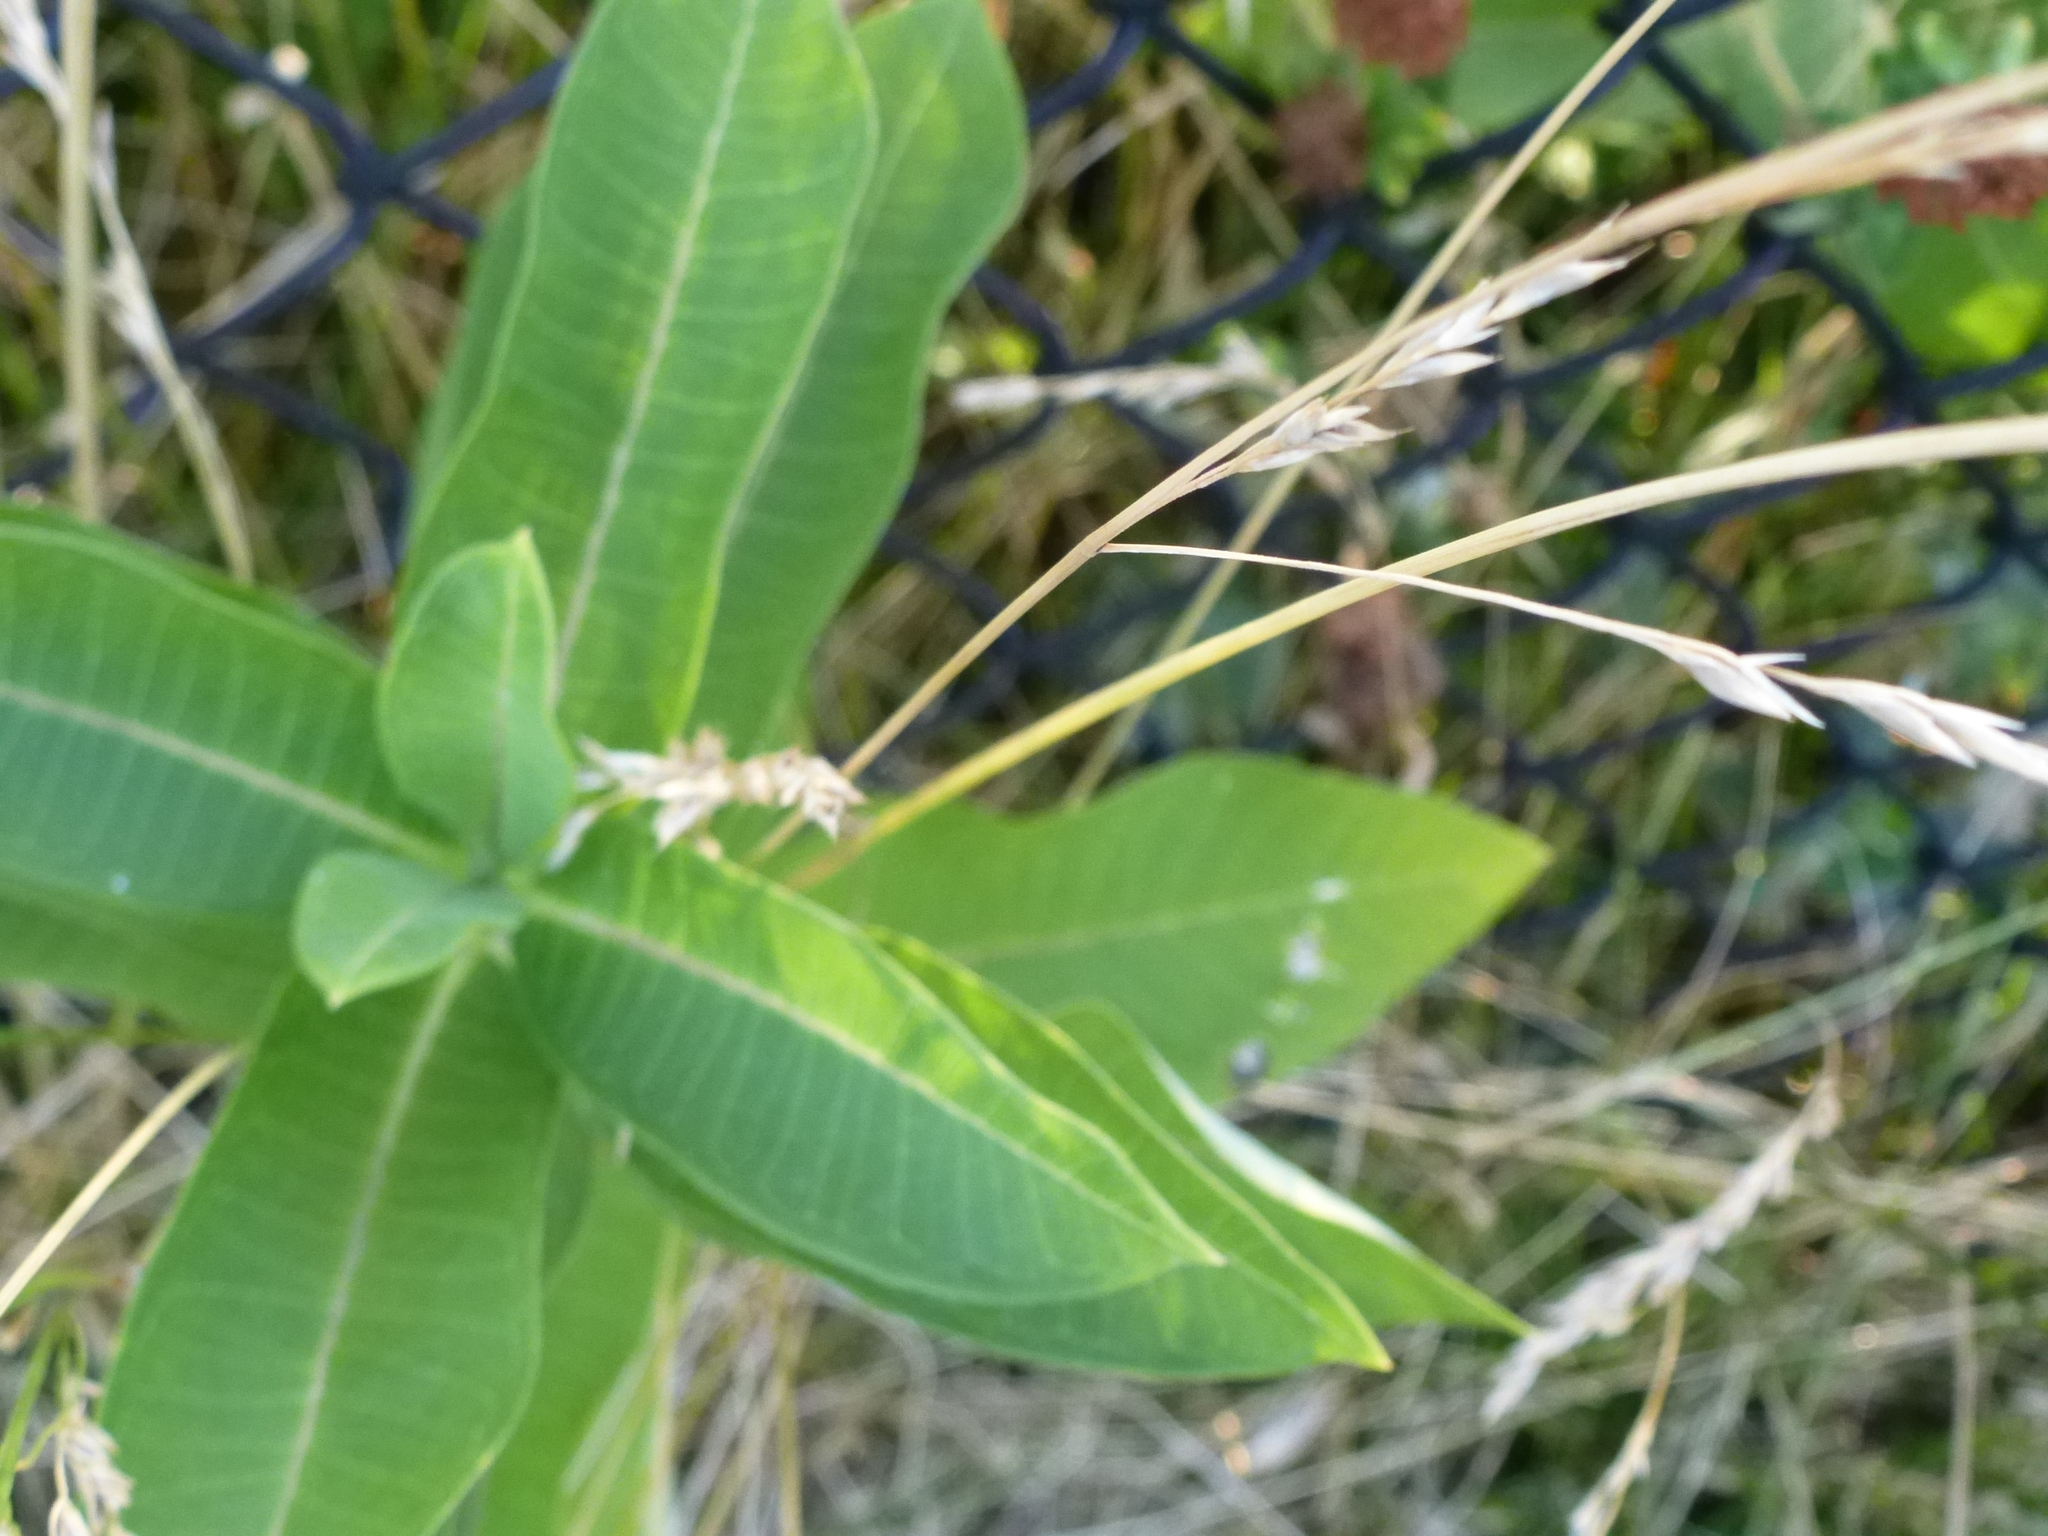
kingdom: Plantae
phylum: Tracheophyta
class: Magnoliopsida
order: Gentianales
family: Apocynaceae
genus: Asclepias
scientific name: Asclepias syriaca
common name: Common milkweed
